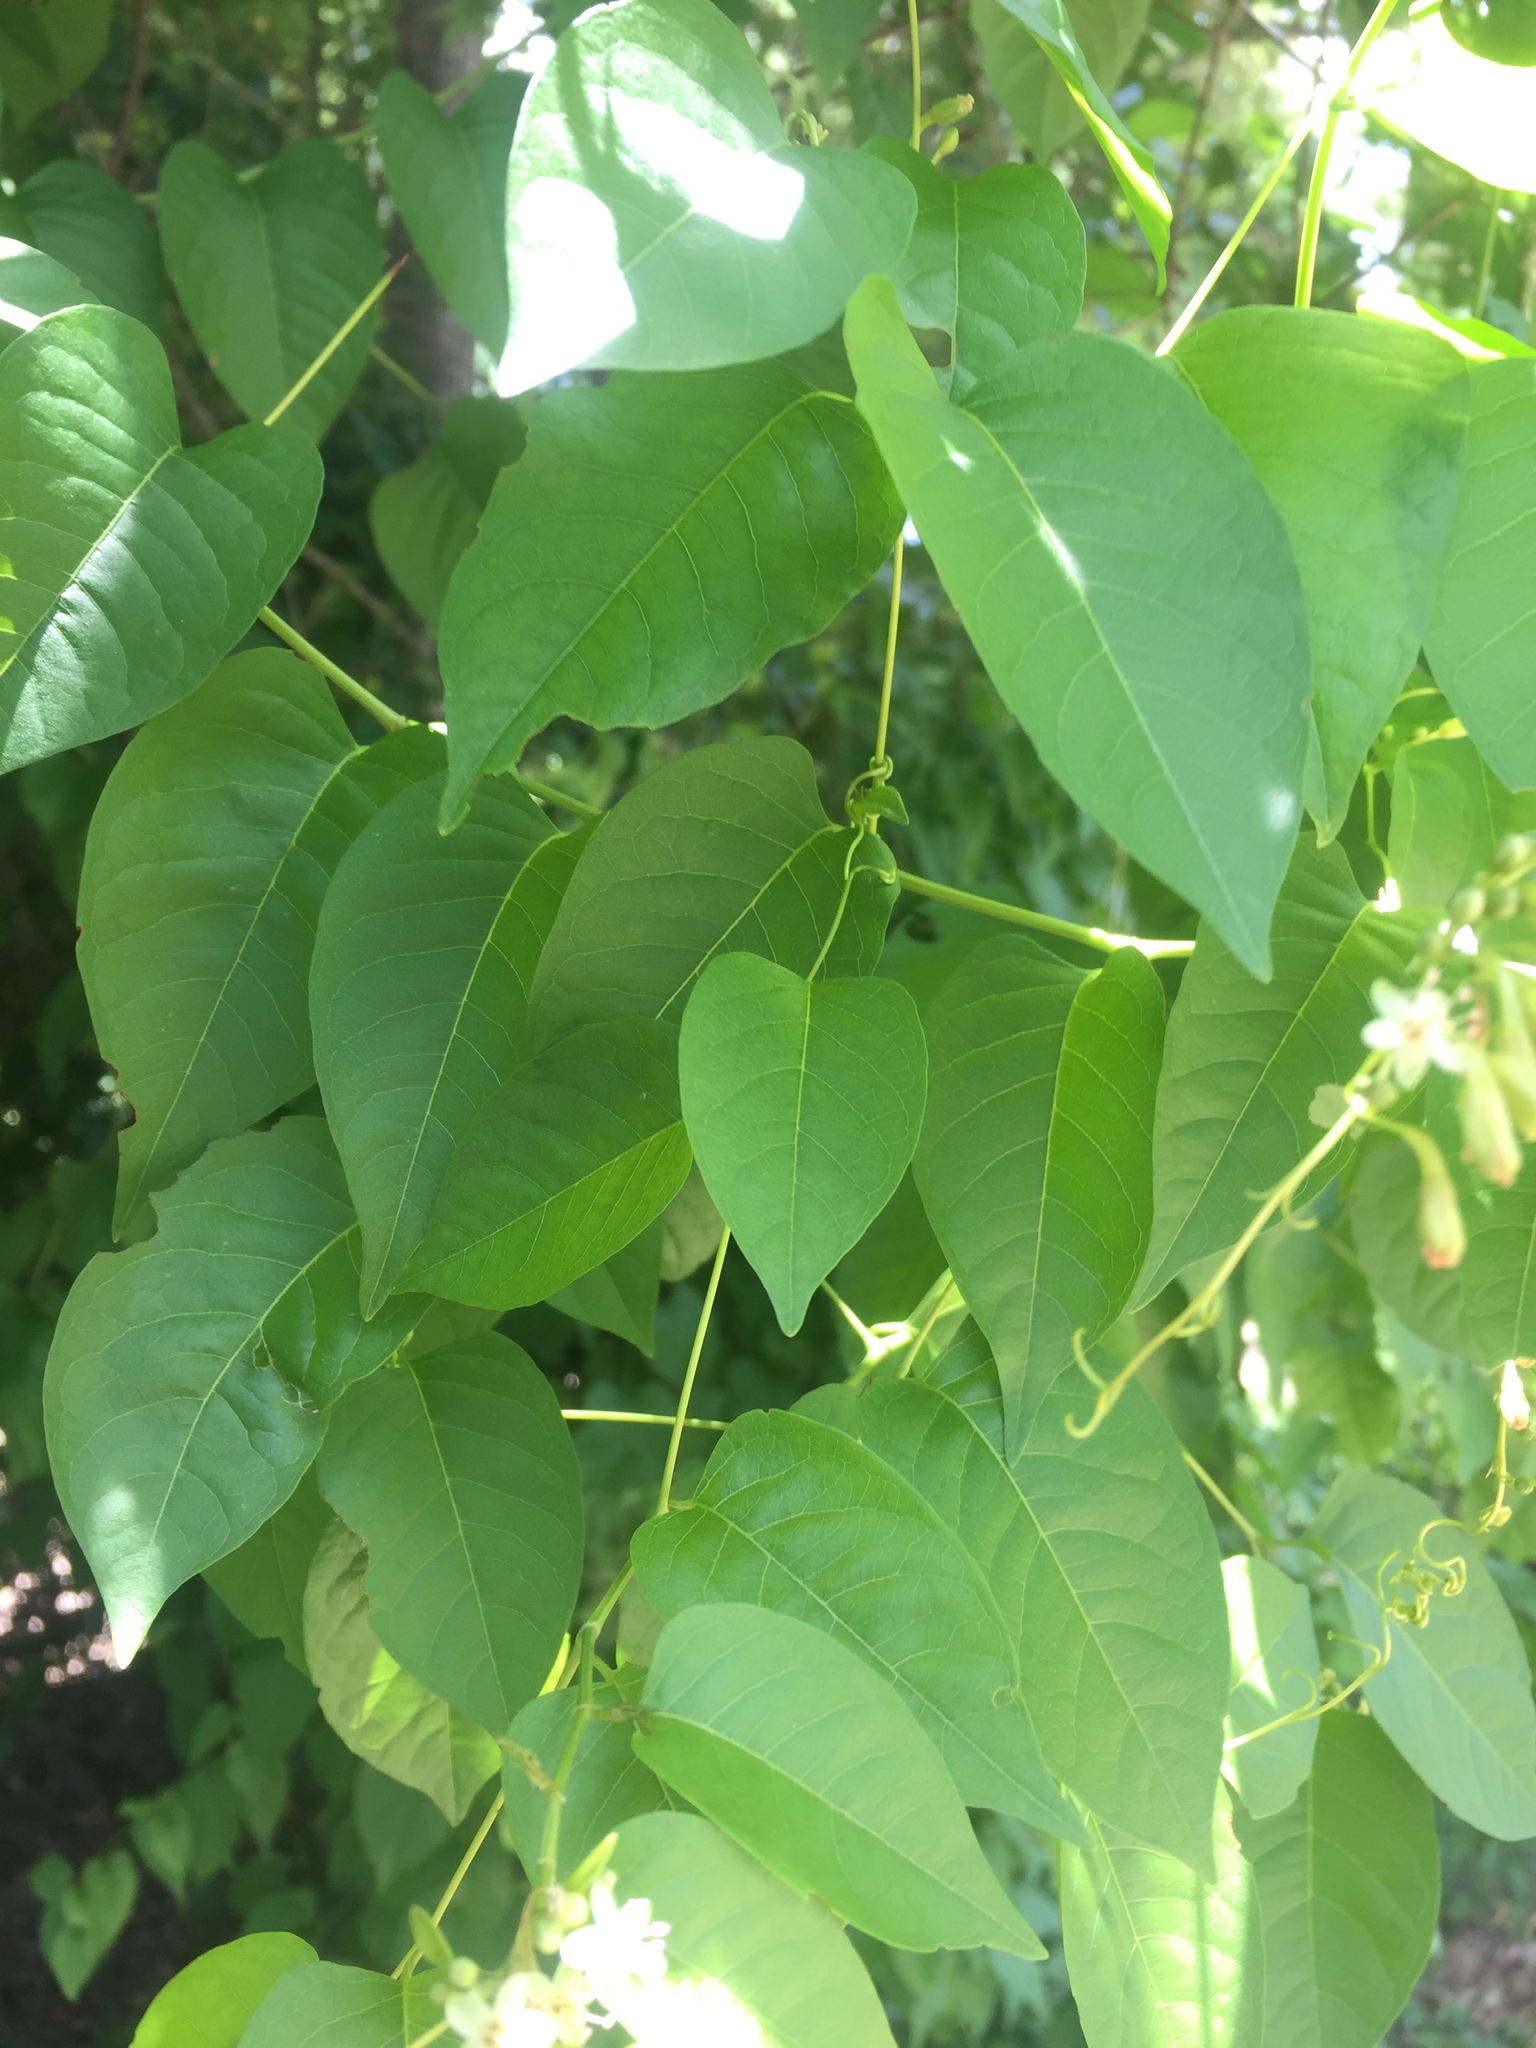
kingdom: Plantae
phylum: Tracheophyta
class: Magnoliopsida
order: Caryophyllales
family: Polygonaceae
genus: Brunnichia
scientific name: Brunnichia ovata
